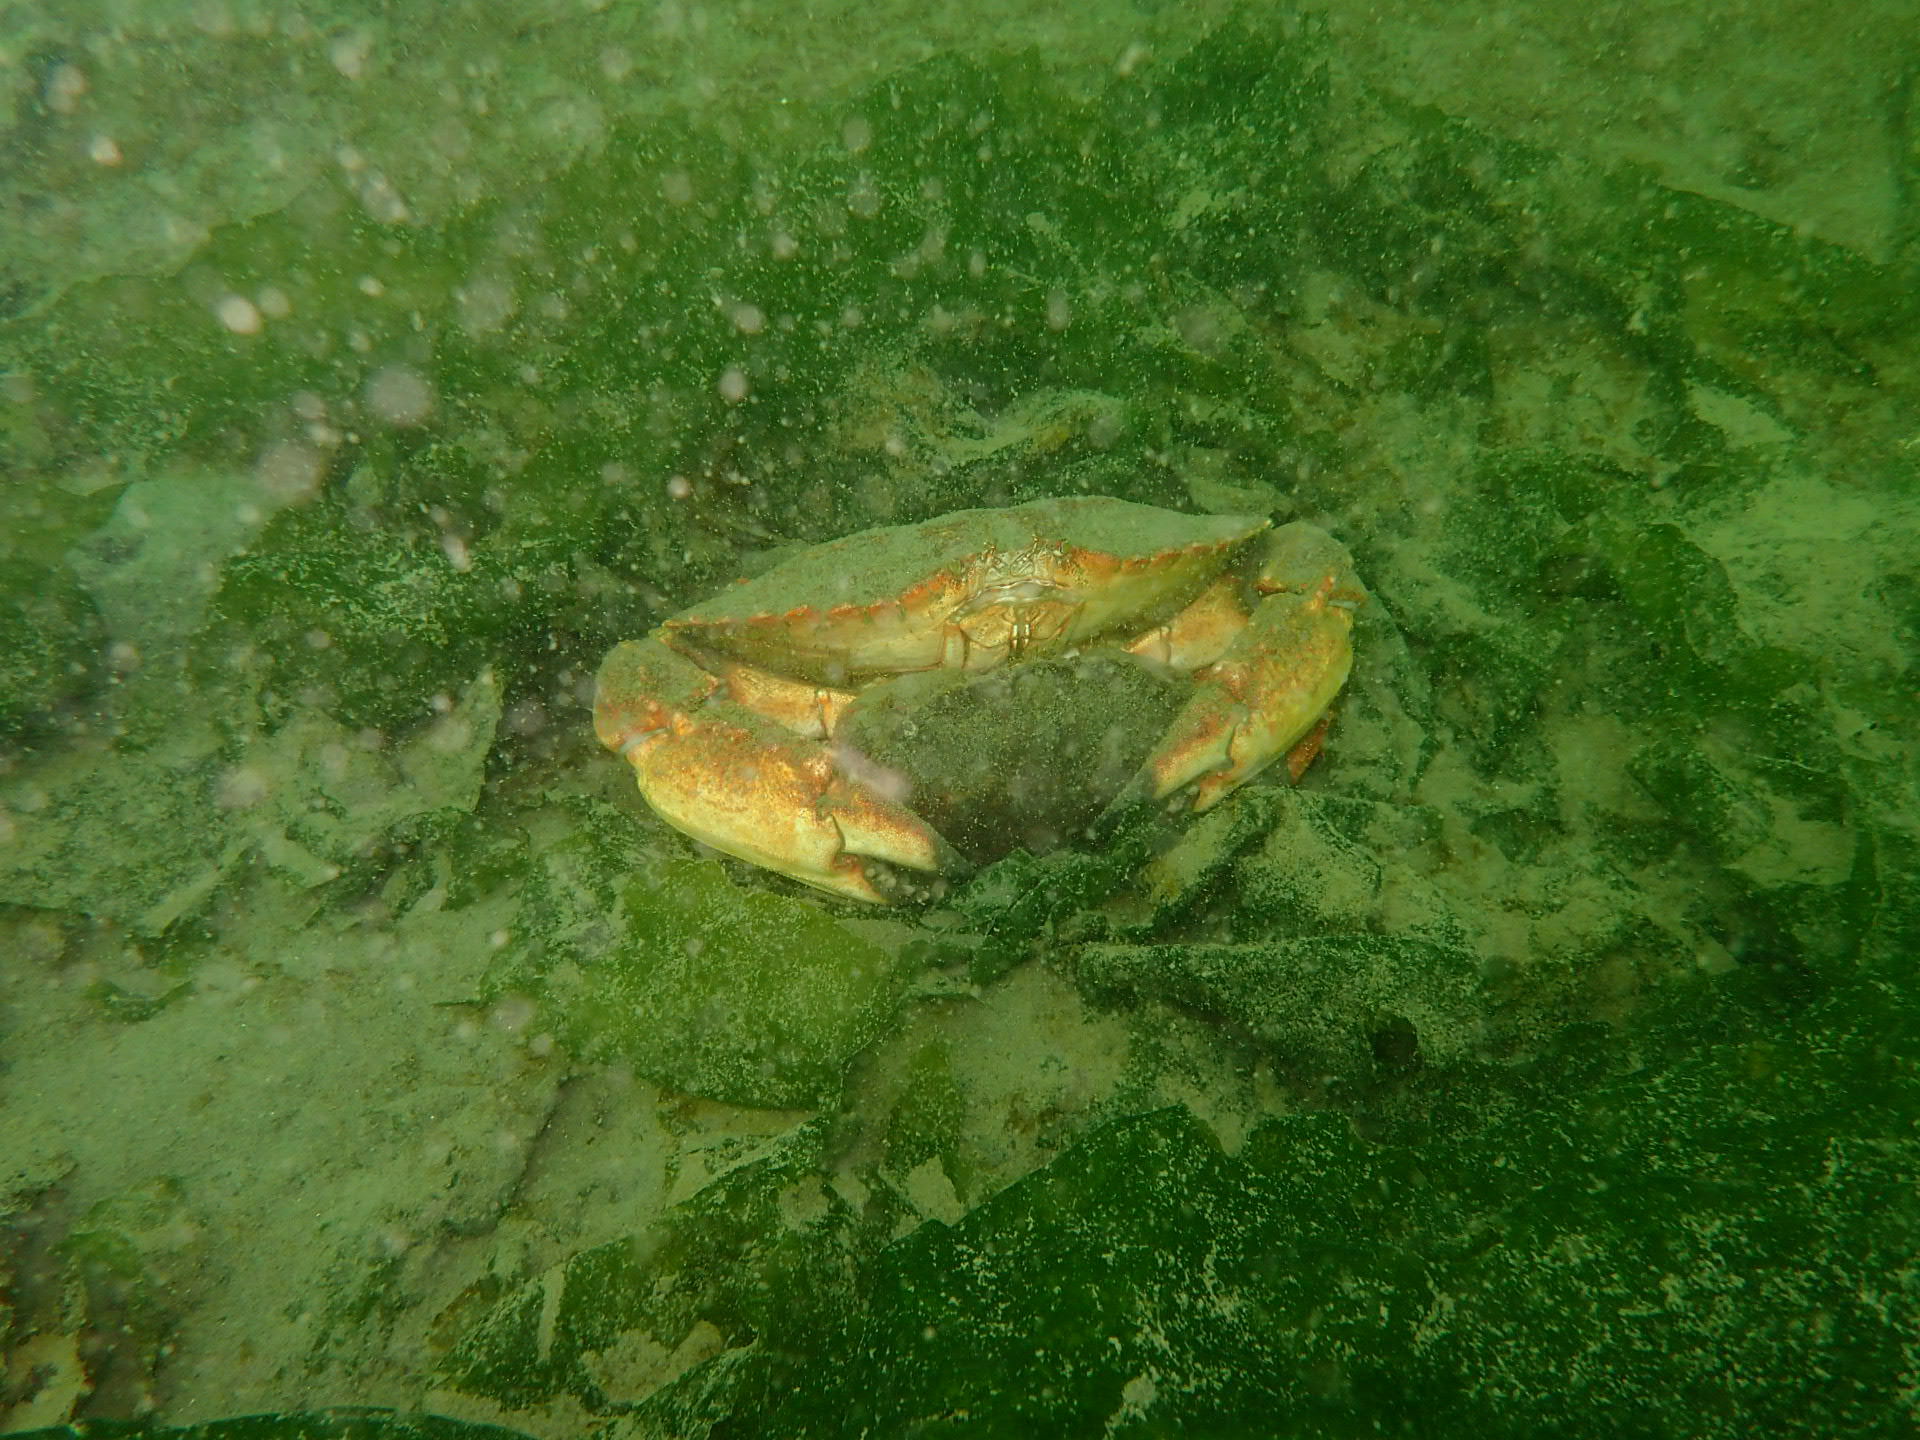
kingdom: Animalia
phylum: Arthropoda
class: Malacostraca
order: Decapoda
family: Cancridae
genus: Cancer
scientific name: Cancer productus
